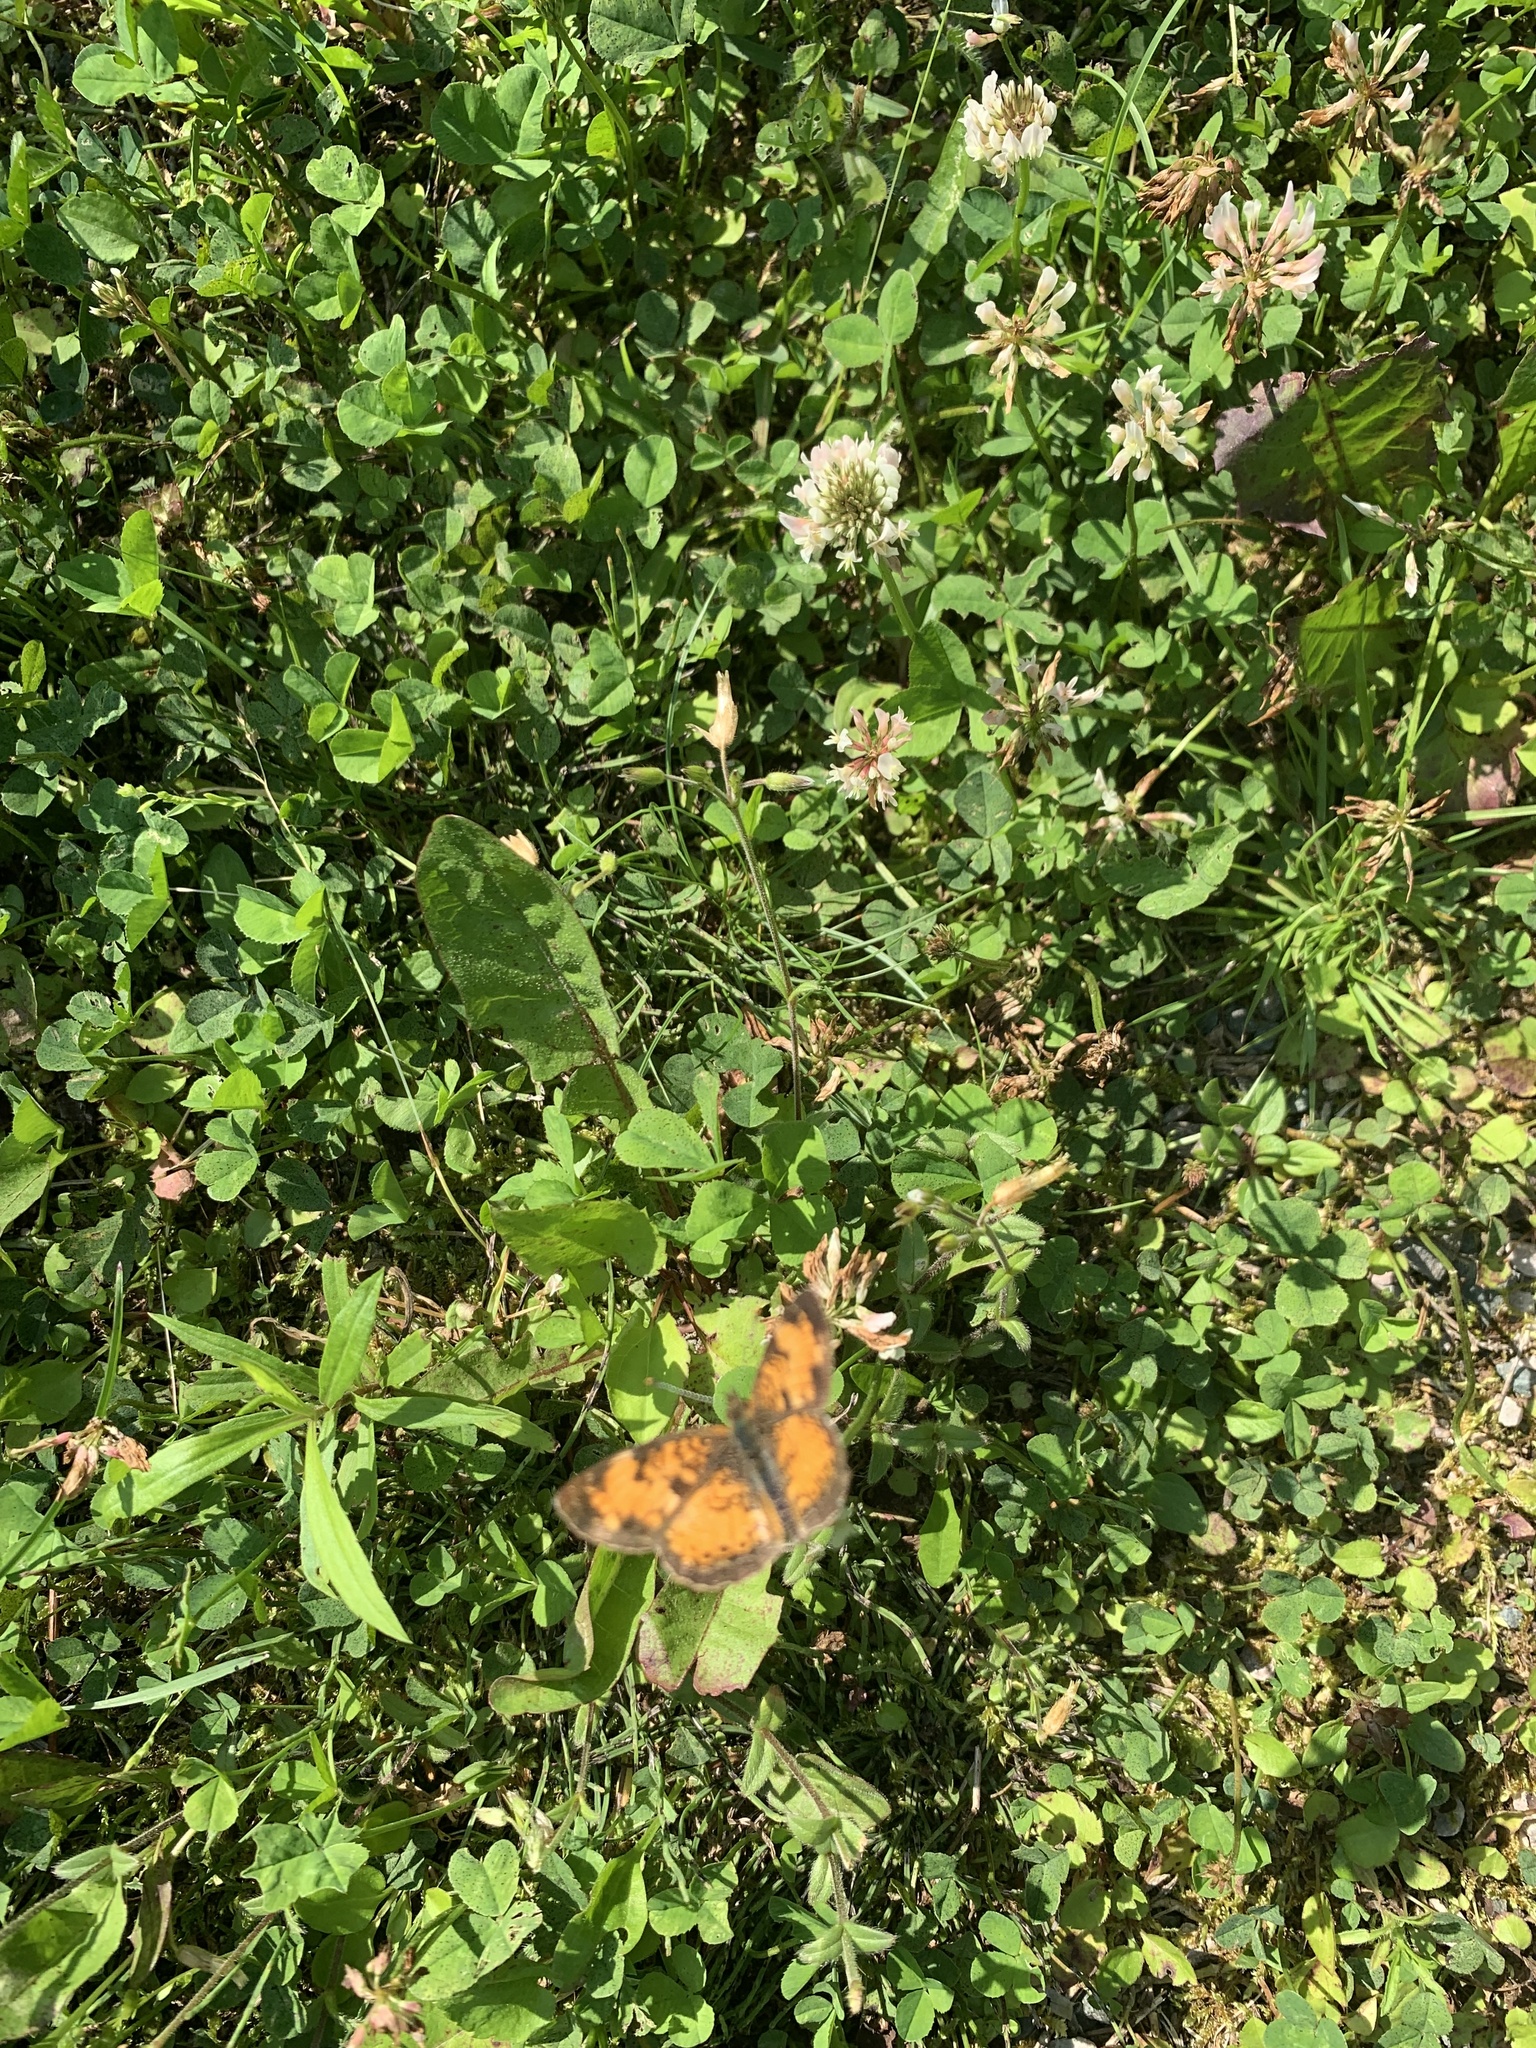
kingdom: Animalia
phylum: Arthropoda
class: Insecta
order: Lepidoptera
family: Nymphalidae
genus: Phyciodes
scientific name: Phyciodes tharos
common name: Pearl crescent
